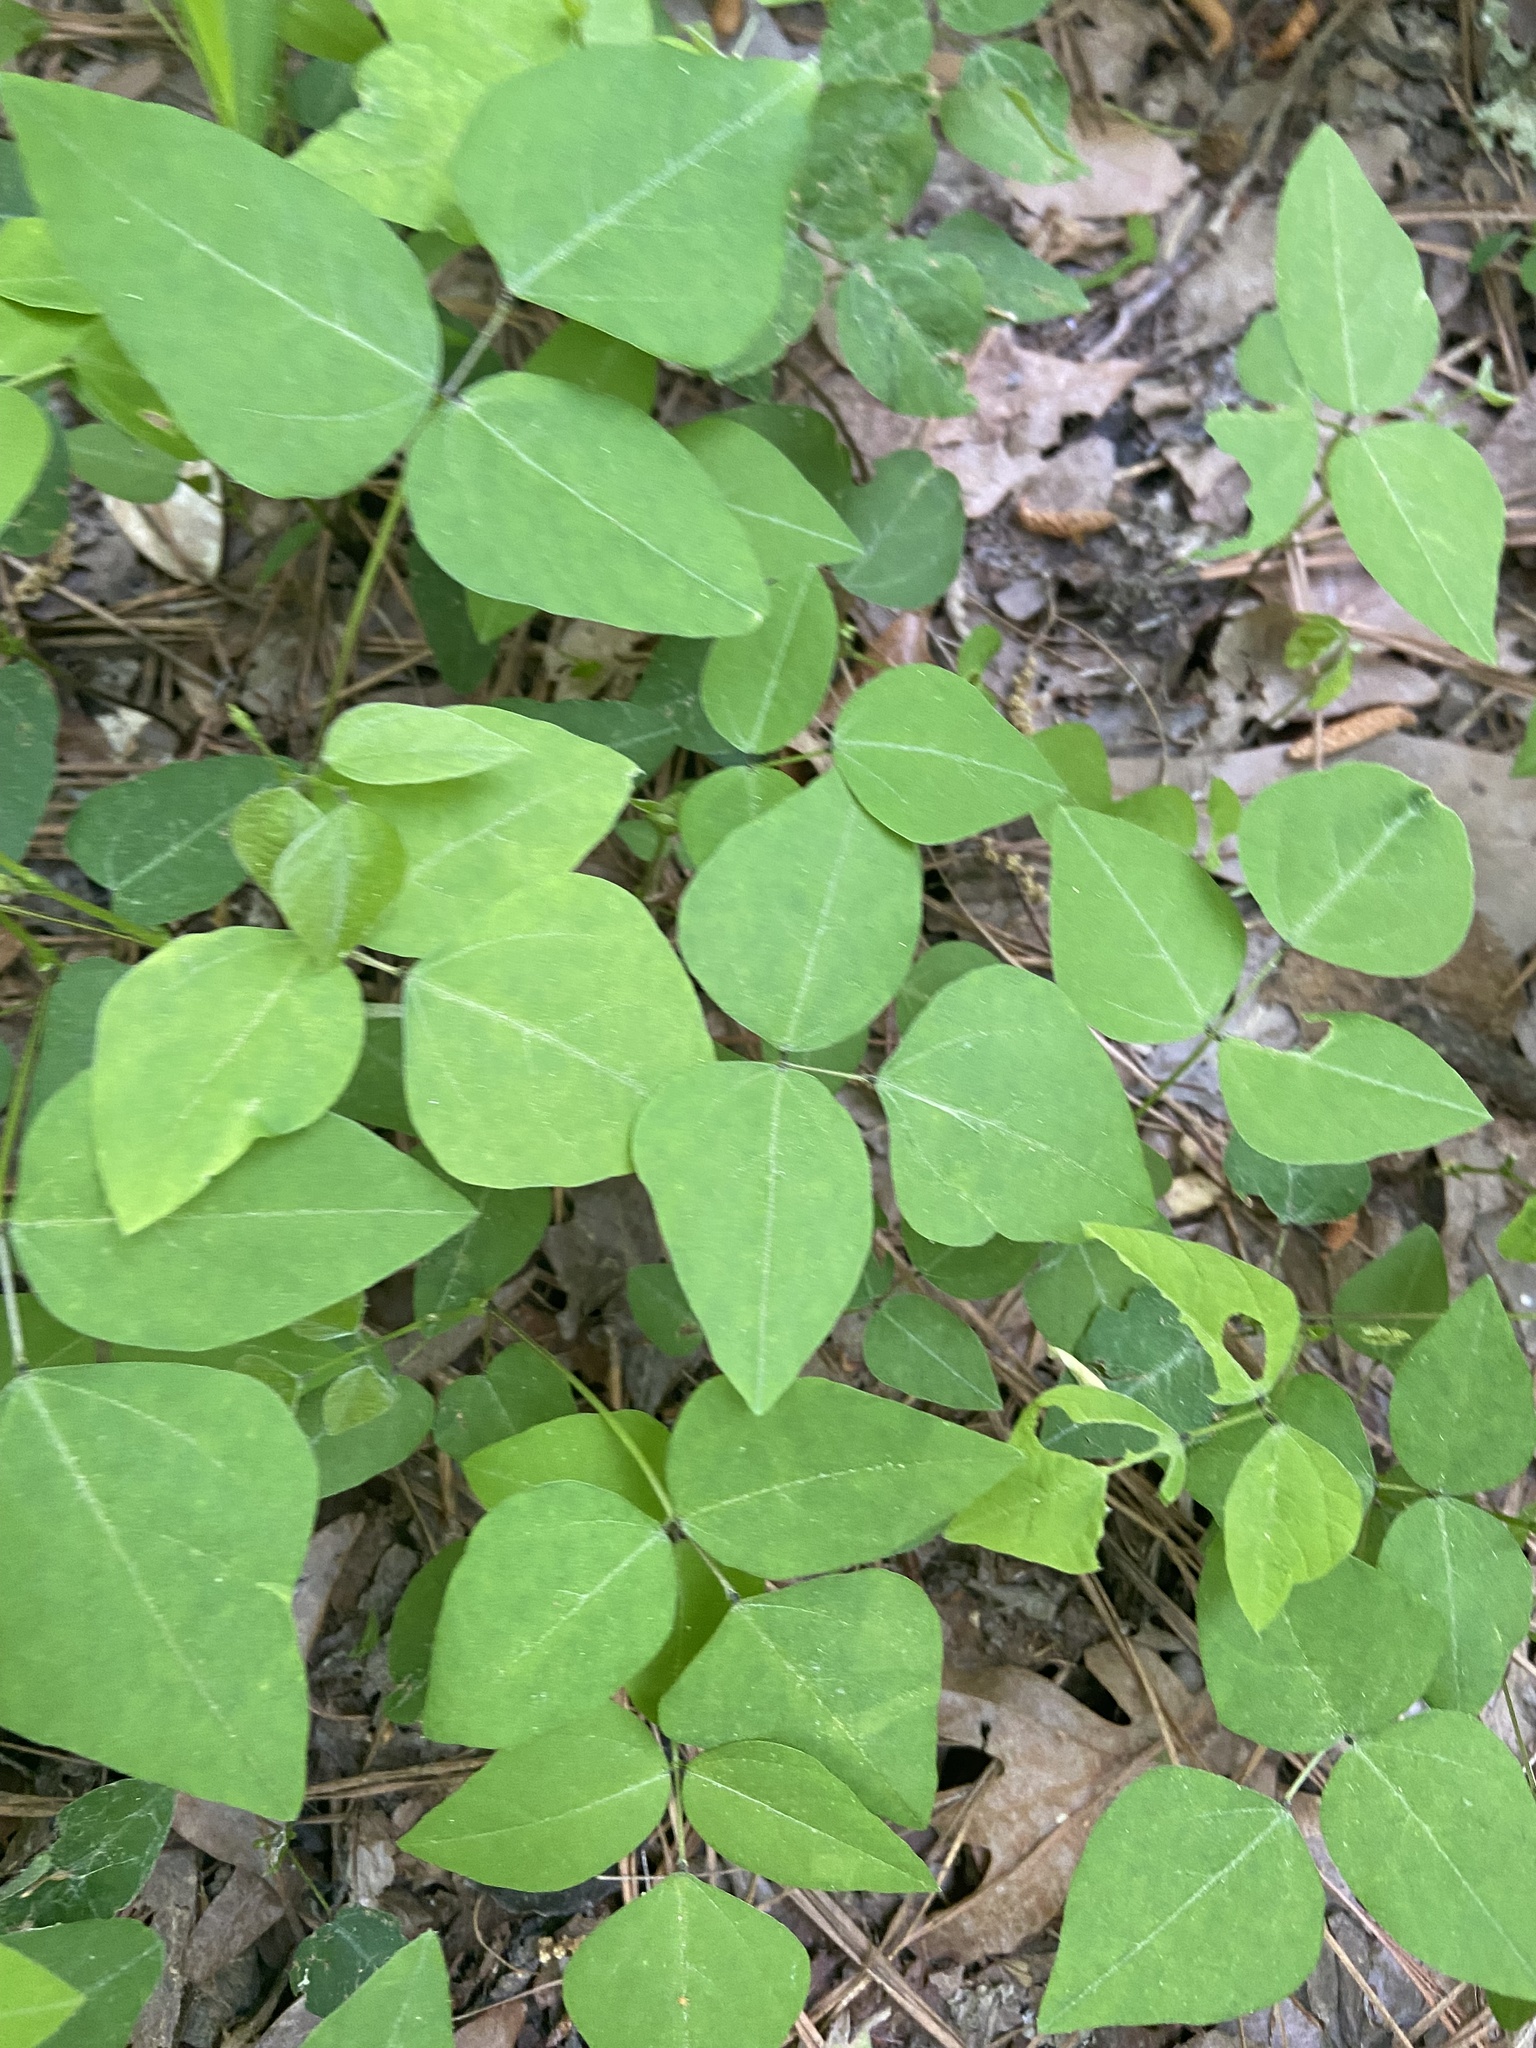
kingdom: Plantae
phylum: Tracheophyta
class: Magnoliopsida
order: Fabales
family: Fabaceae
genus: Amphicarpaea
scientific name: Amphicarpaea bracteata
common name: American hog peanut
